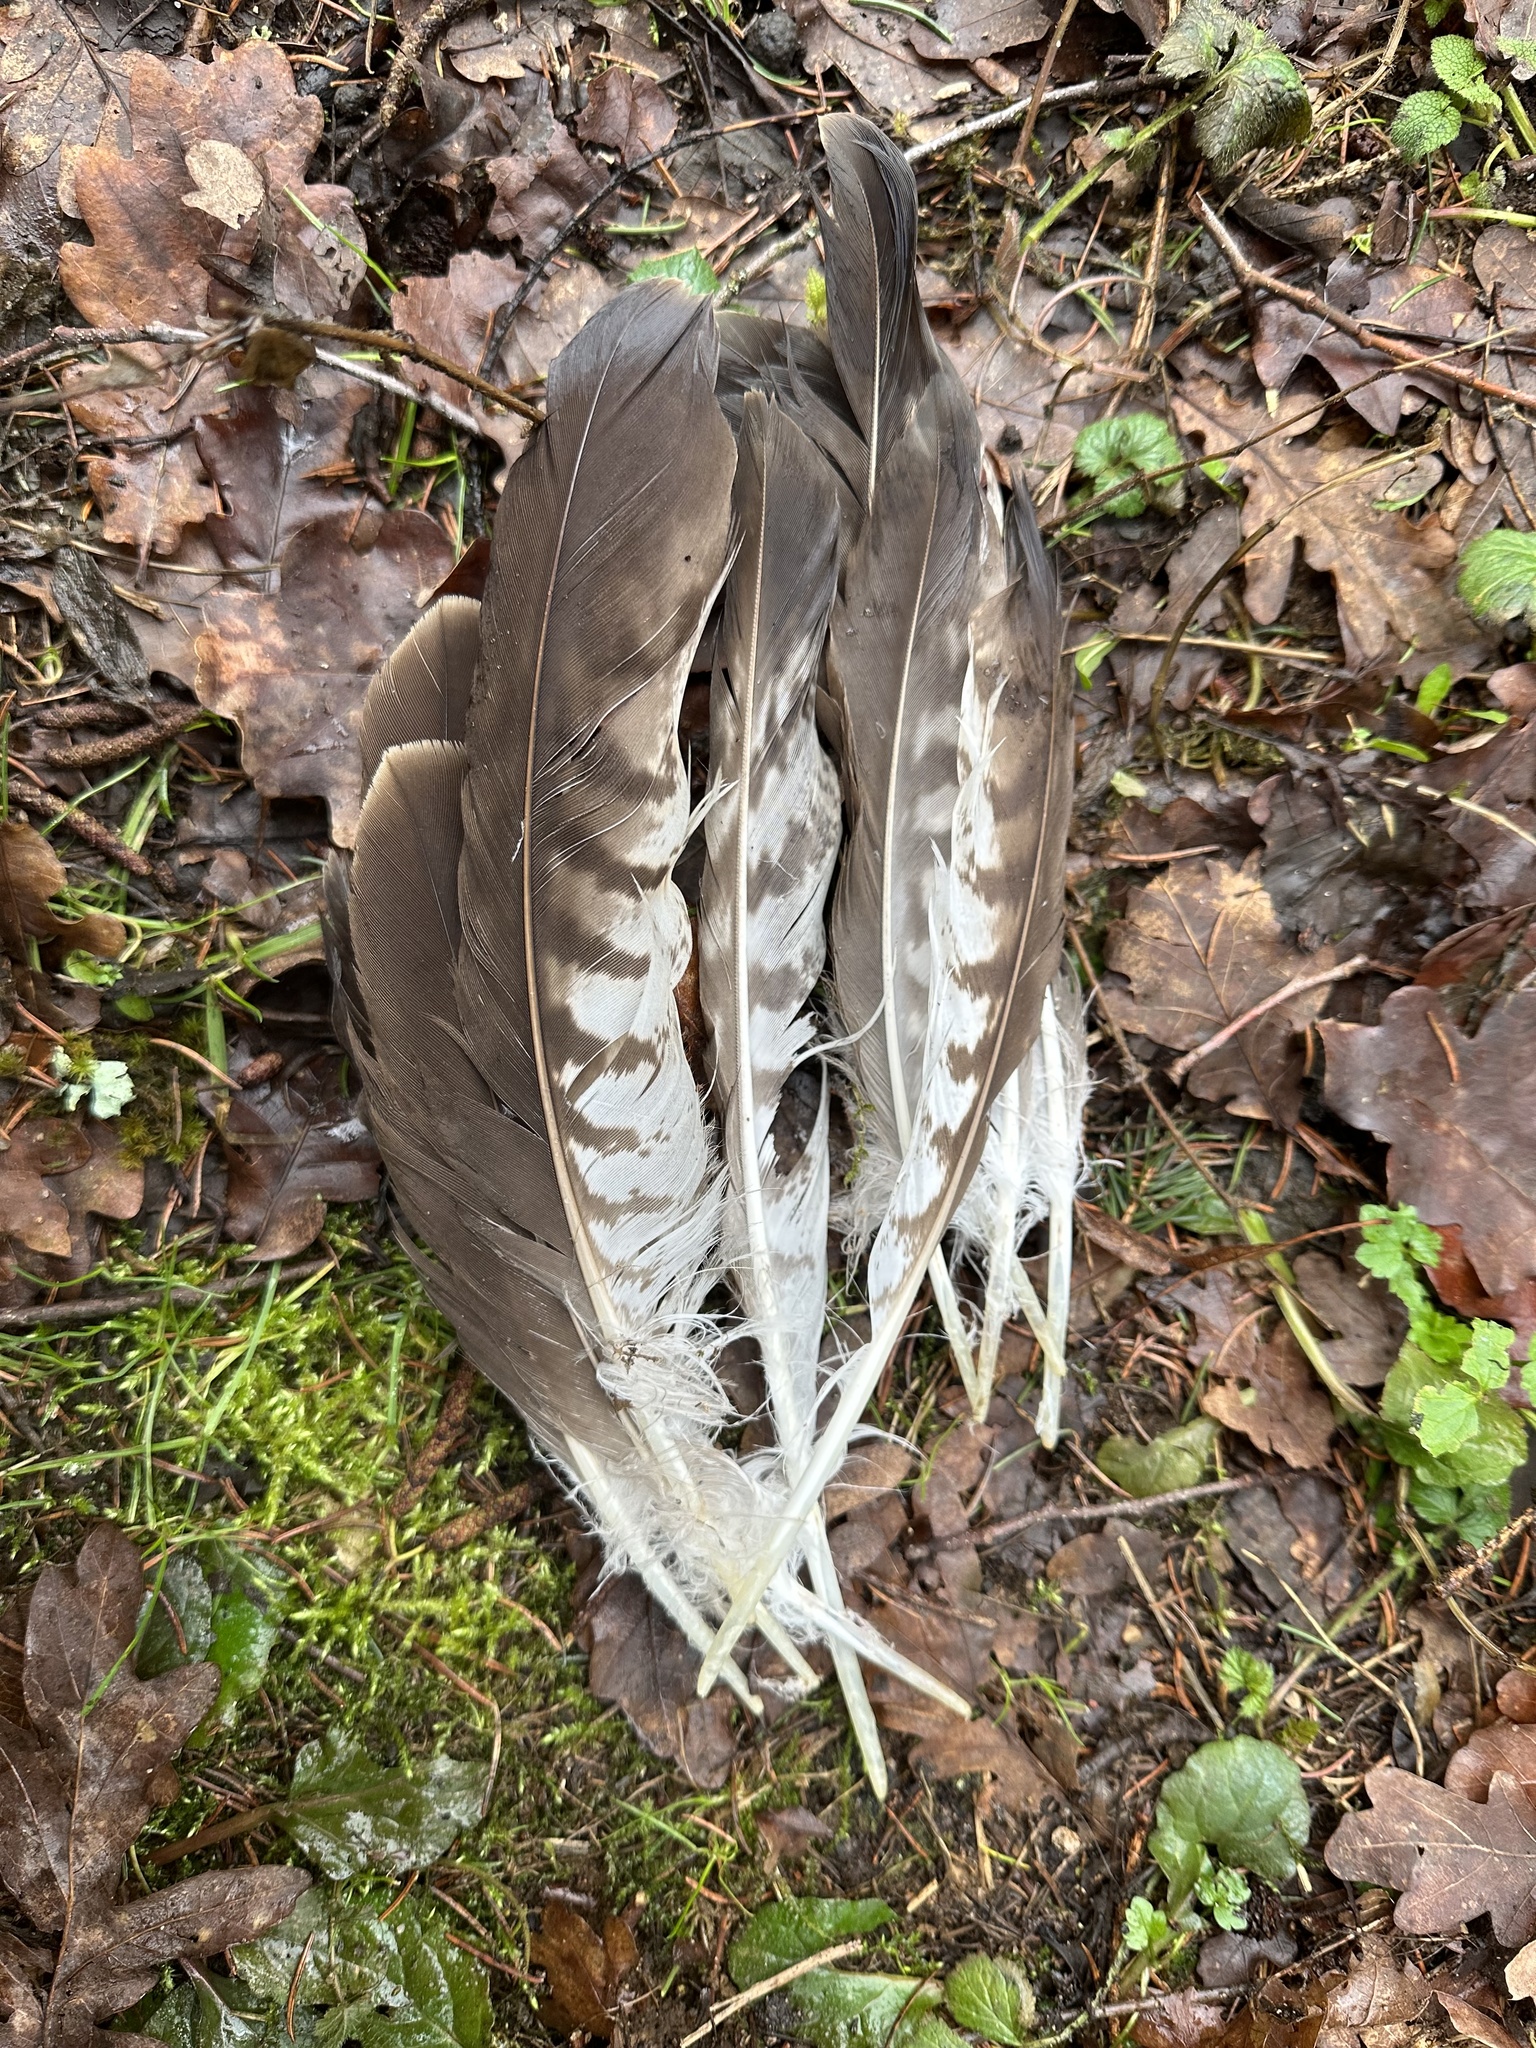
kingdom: Animalia
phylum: Chordata
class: Aves
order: Accipitriformes
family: Accipitridae
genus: Buteo
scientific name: Buteo buteo
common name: Common buzzard
